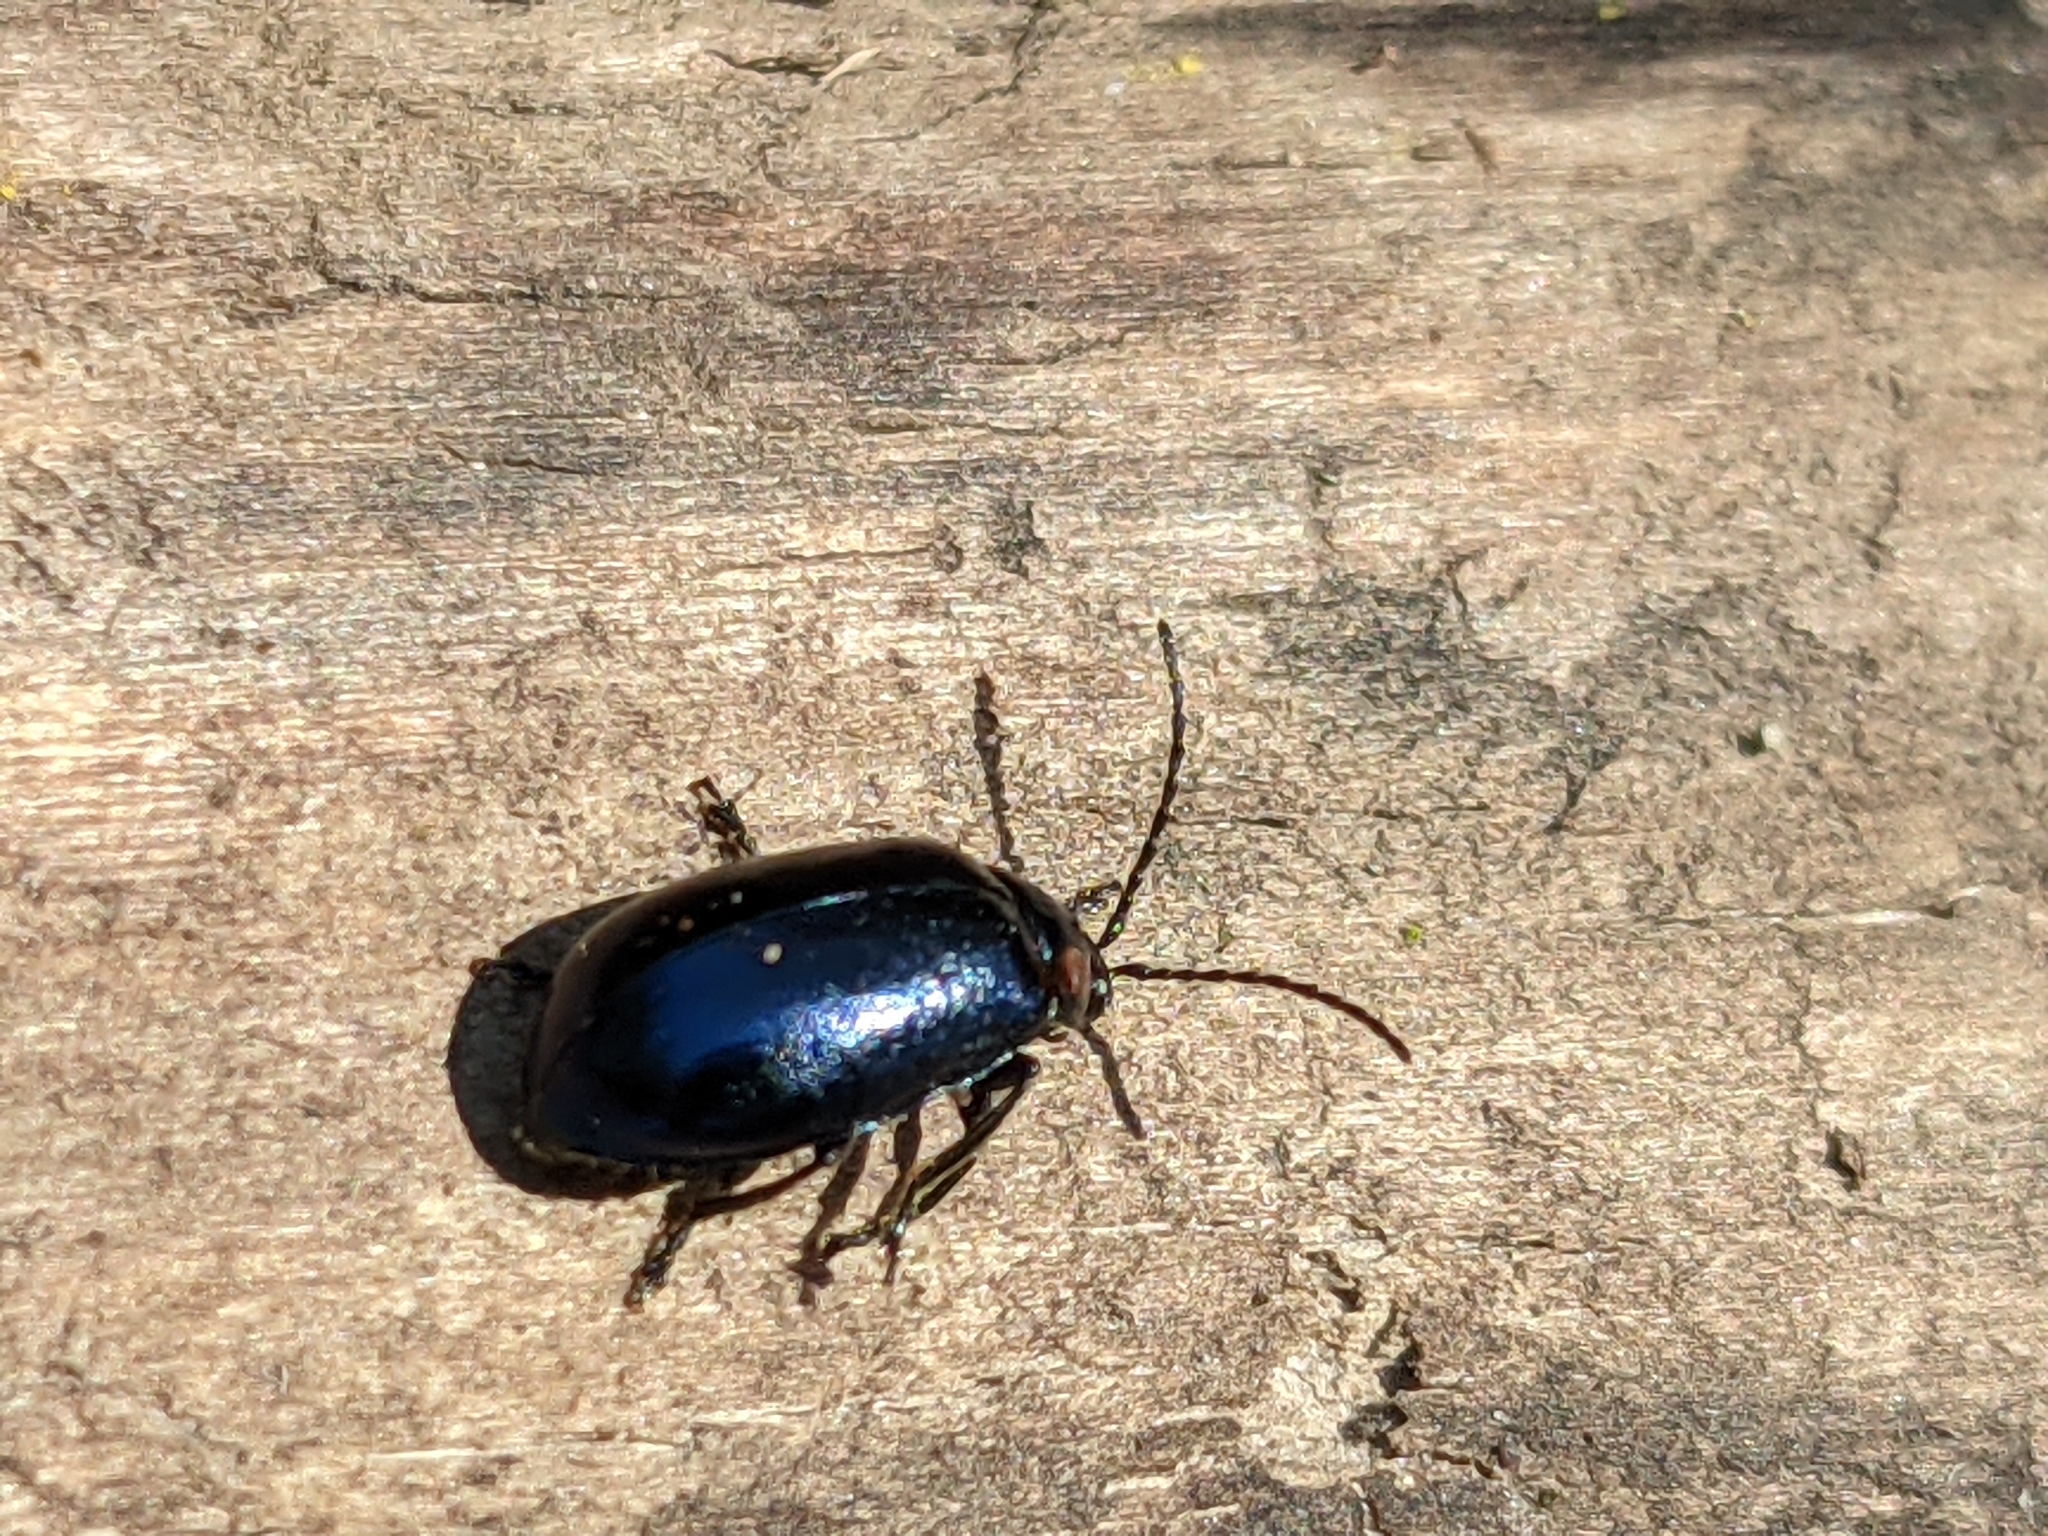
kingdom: Animalia
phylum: Arthropoda
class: Insecta
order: Coleoptera
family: Chrysomelidae
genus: Agelastica
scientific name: Agelastica alni
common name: Alder leaf beetle
